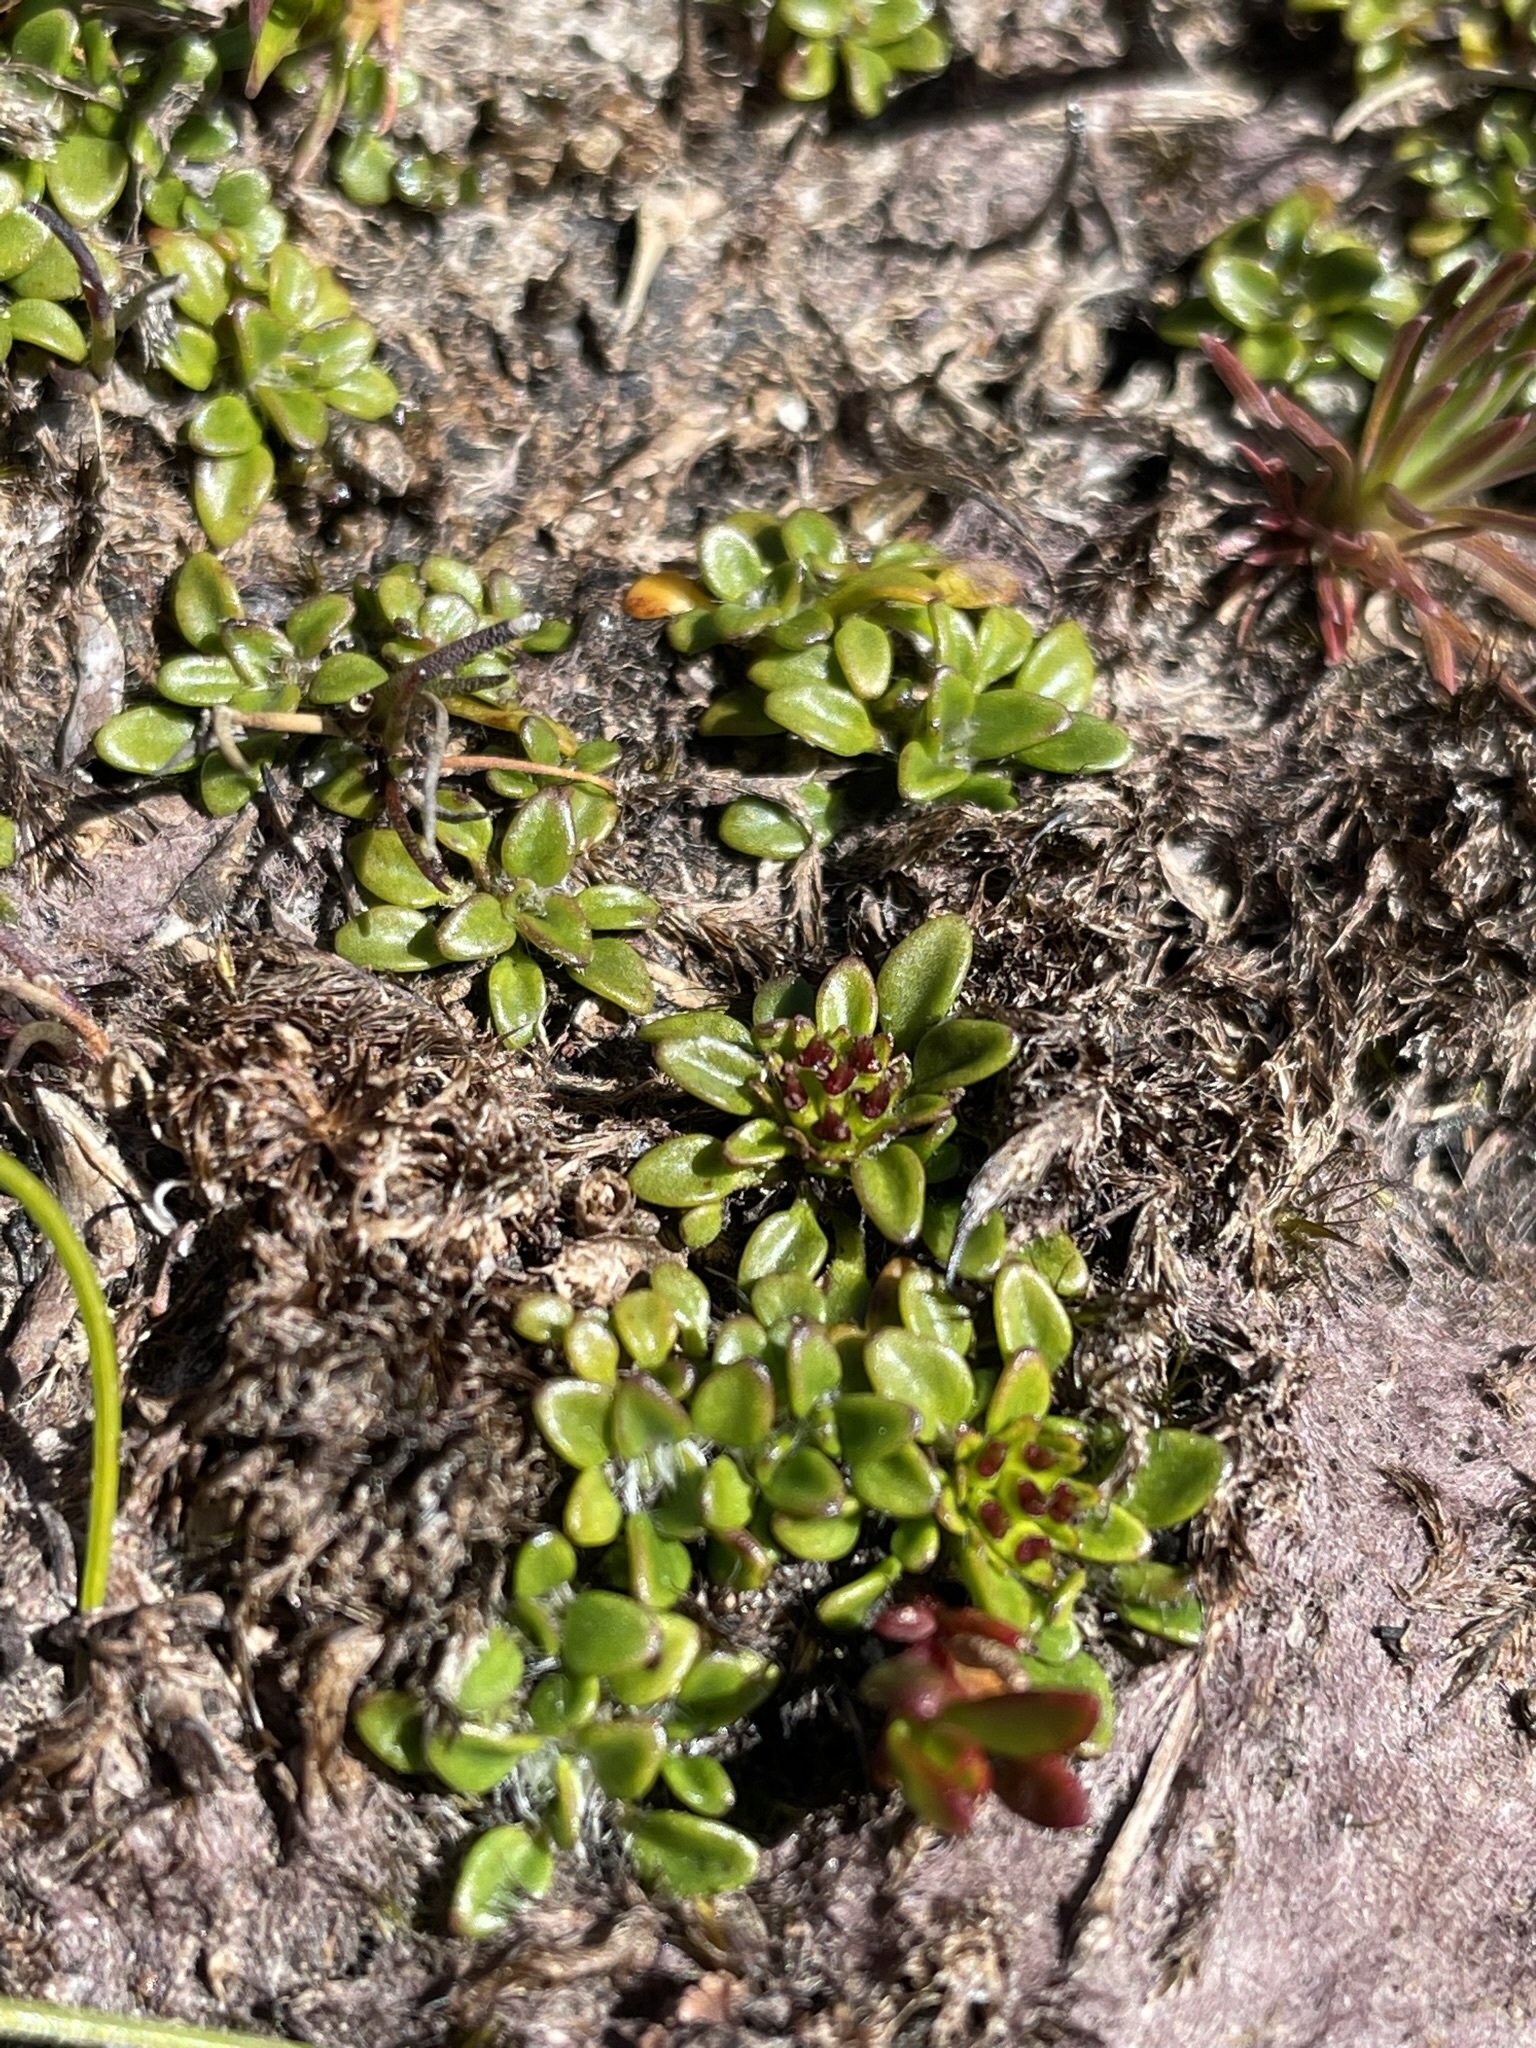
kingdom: Plantae
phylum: Tracheophyta
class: Magnoliopsida
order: Apiales
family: Apiaceae
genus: Actinotus
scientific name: Actinotus suffocatus
